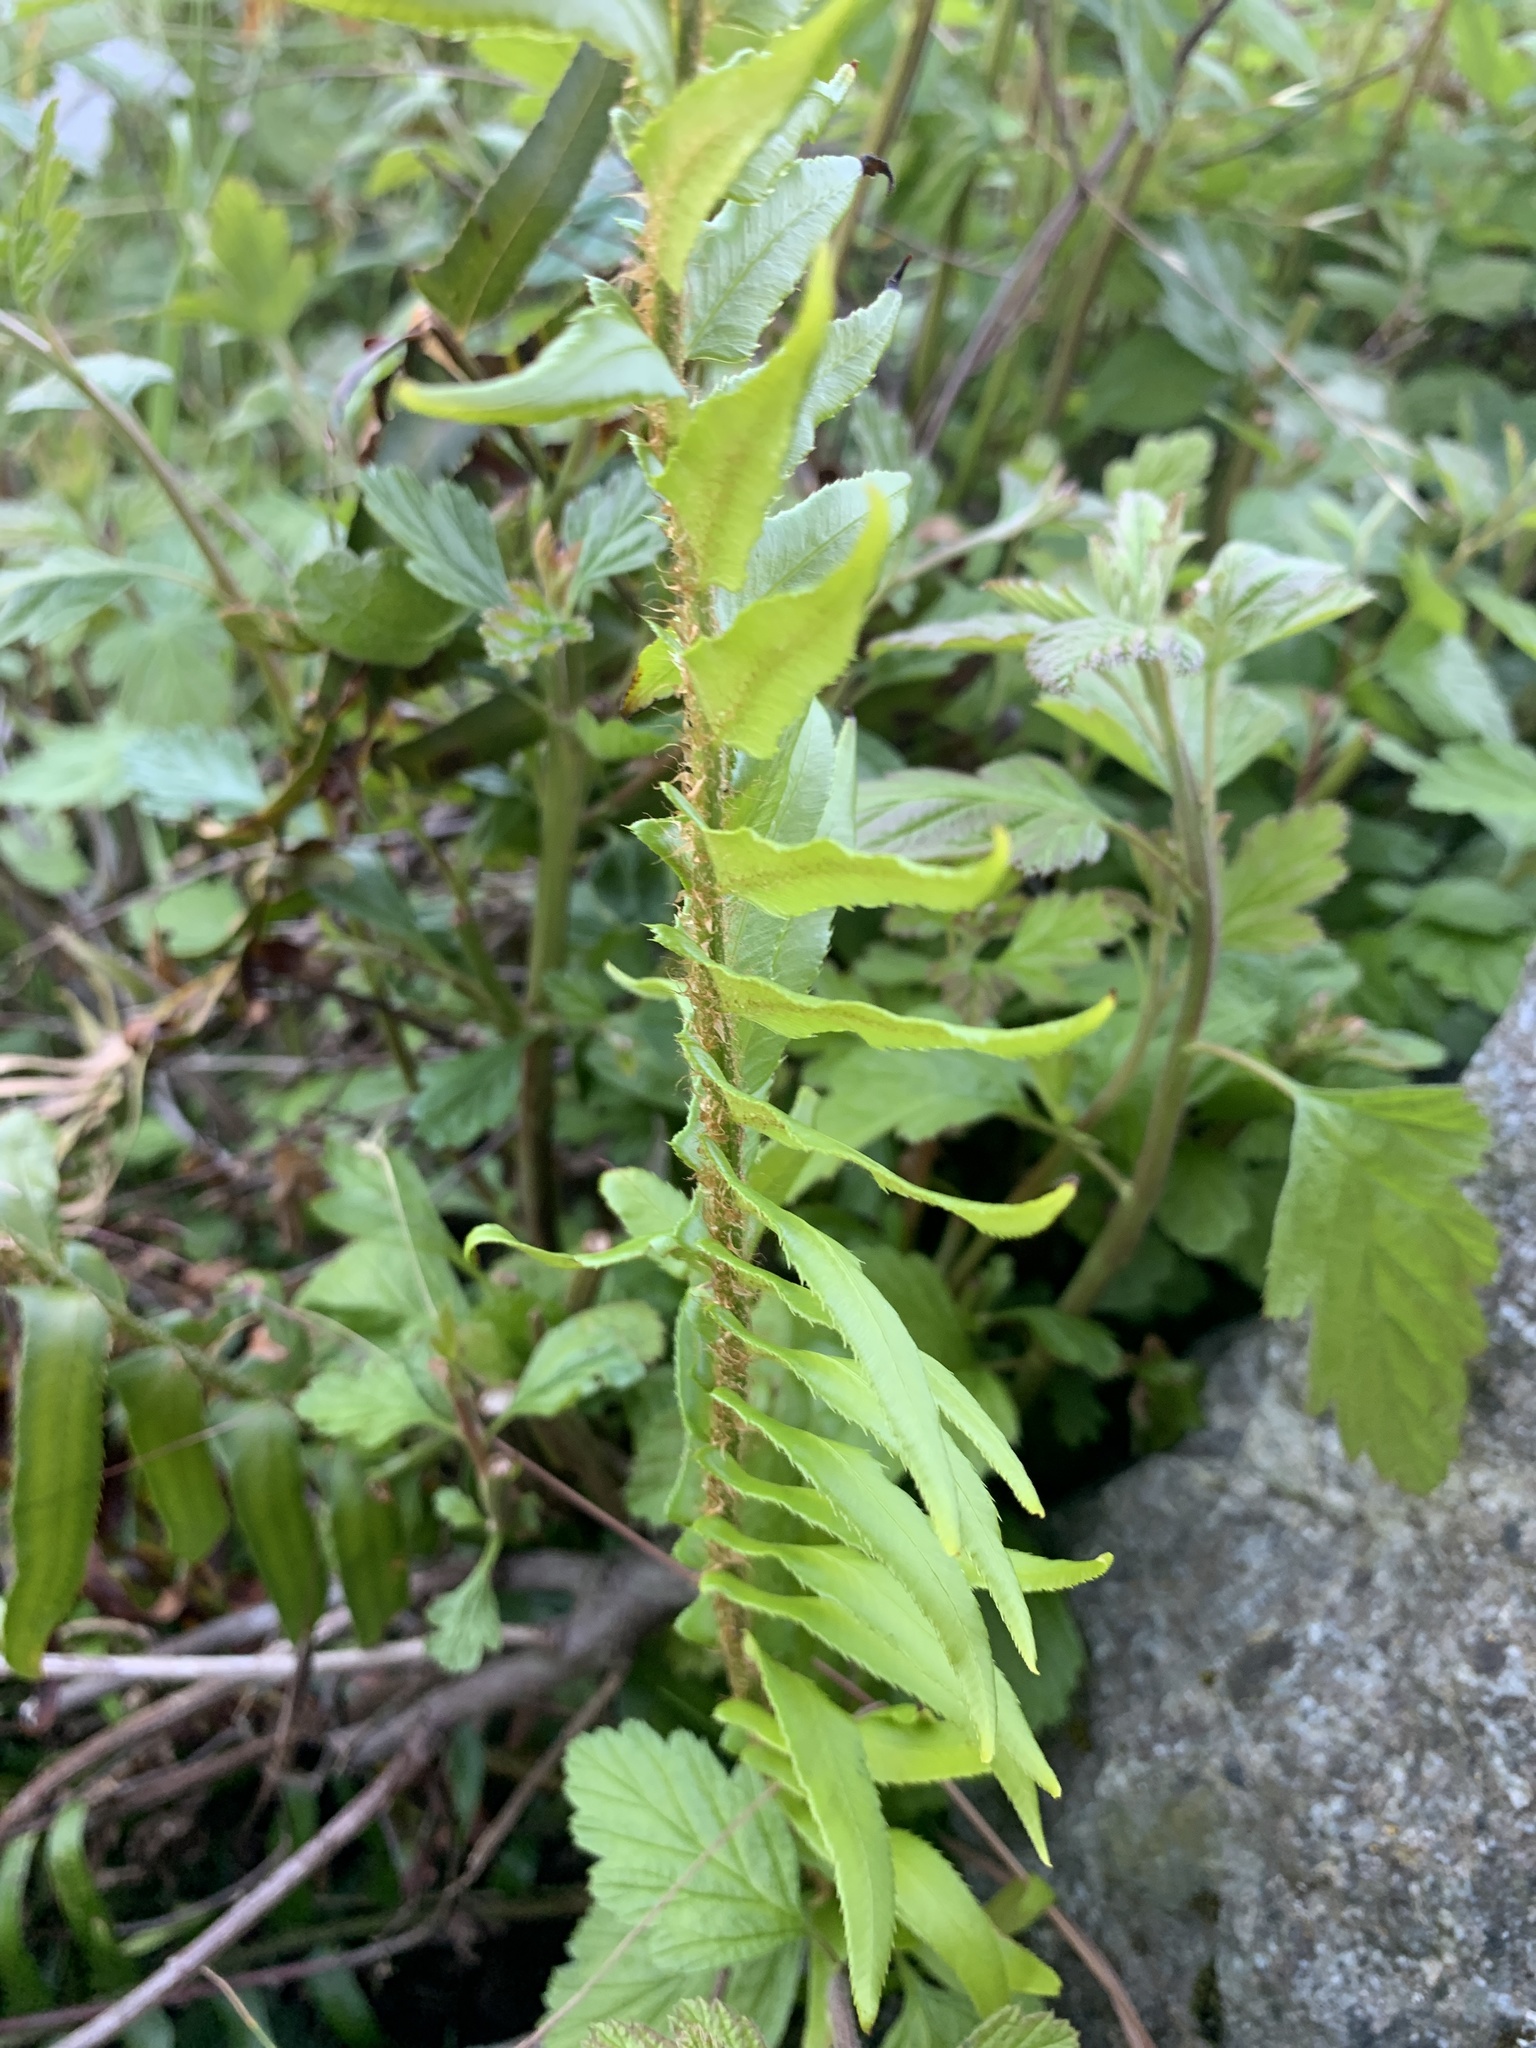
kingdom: Plantae
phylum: Tracheophyta
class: Polypodiopsida
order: Polypodiales
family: Dryopteridaceae
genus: Polystichum
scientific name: Polystichum munitum
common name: Western sword-fern
